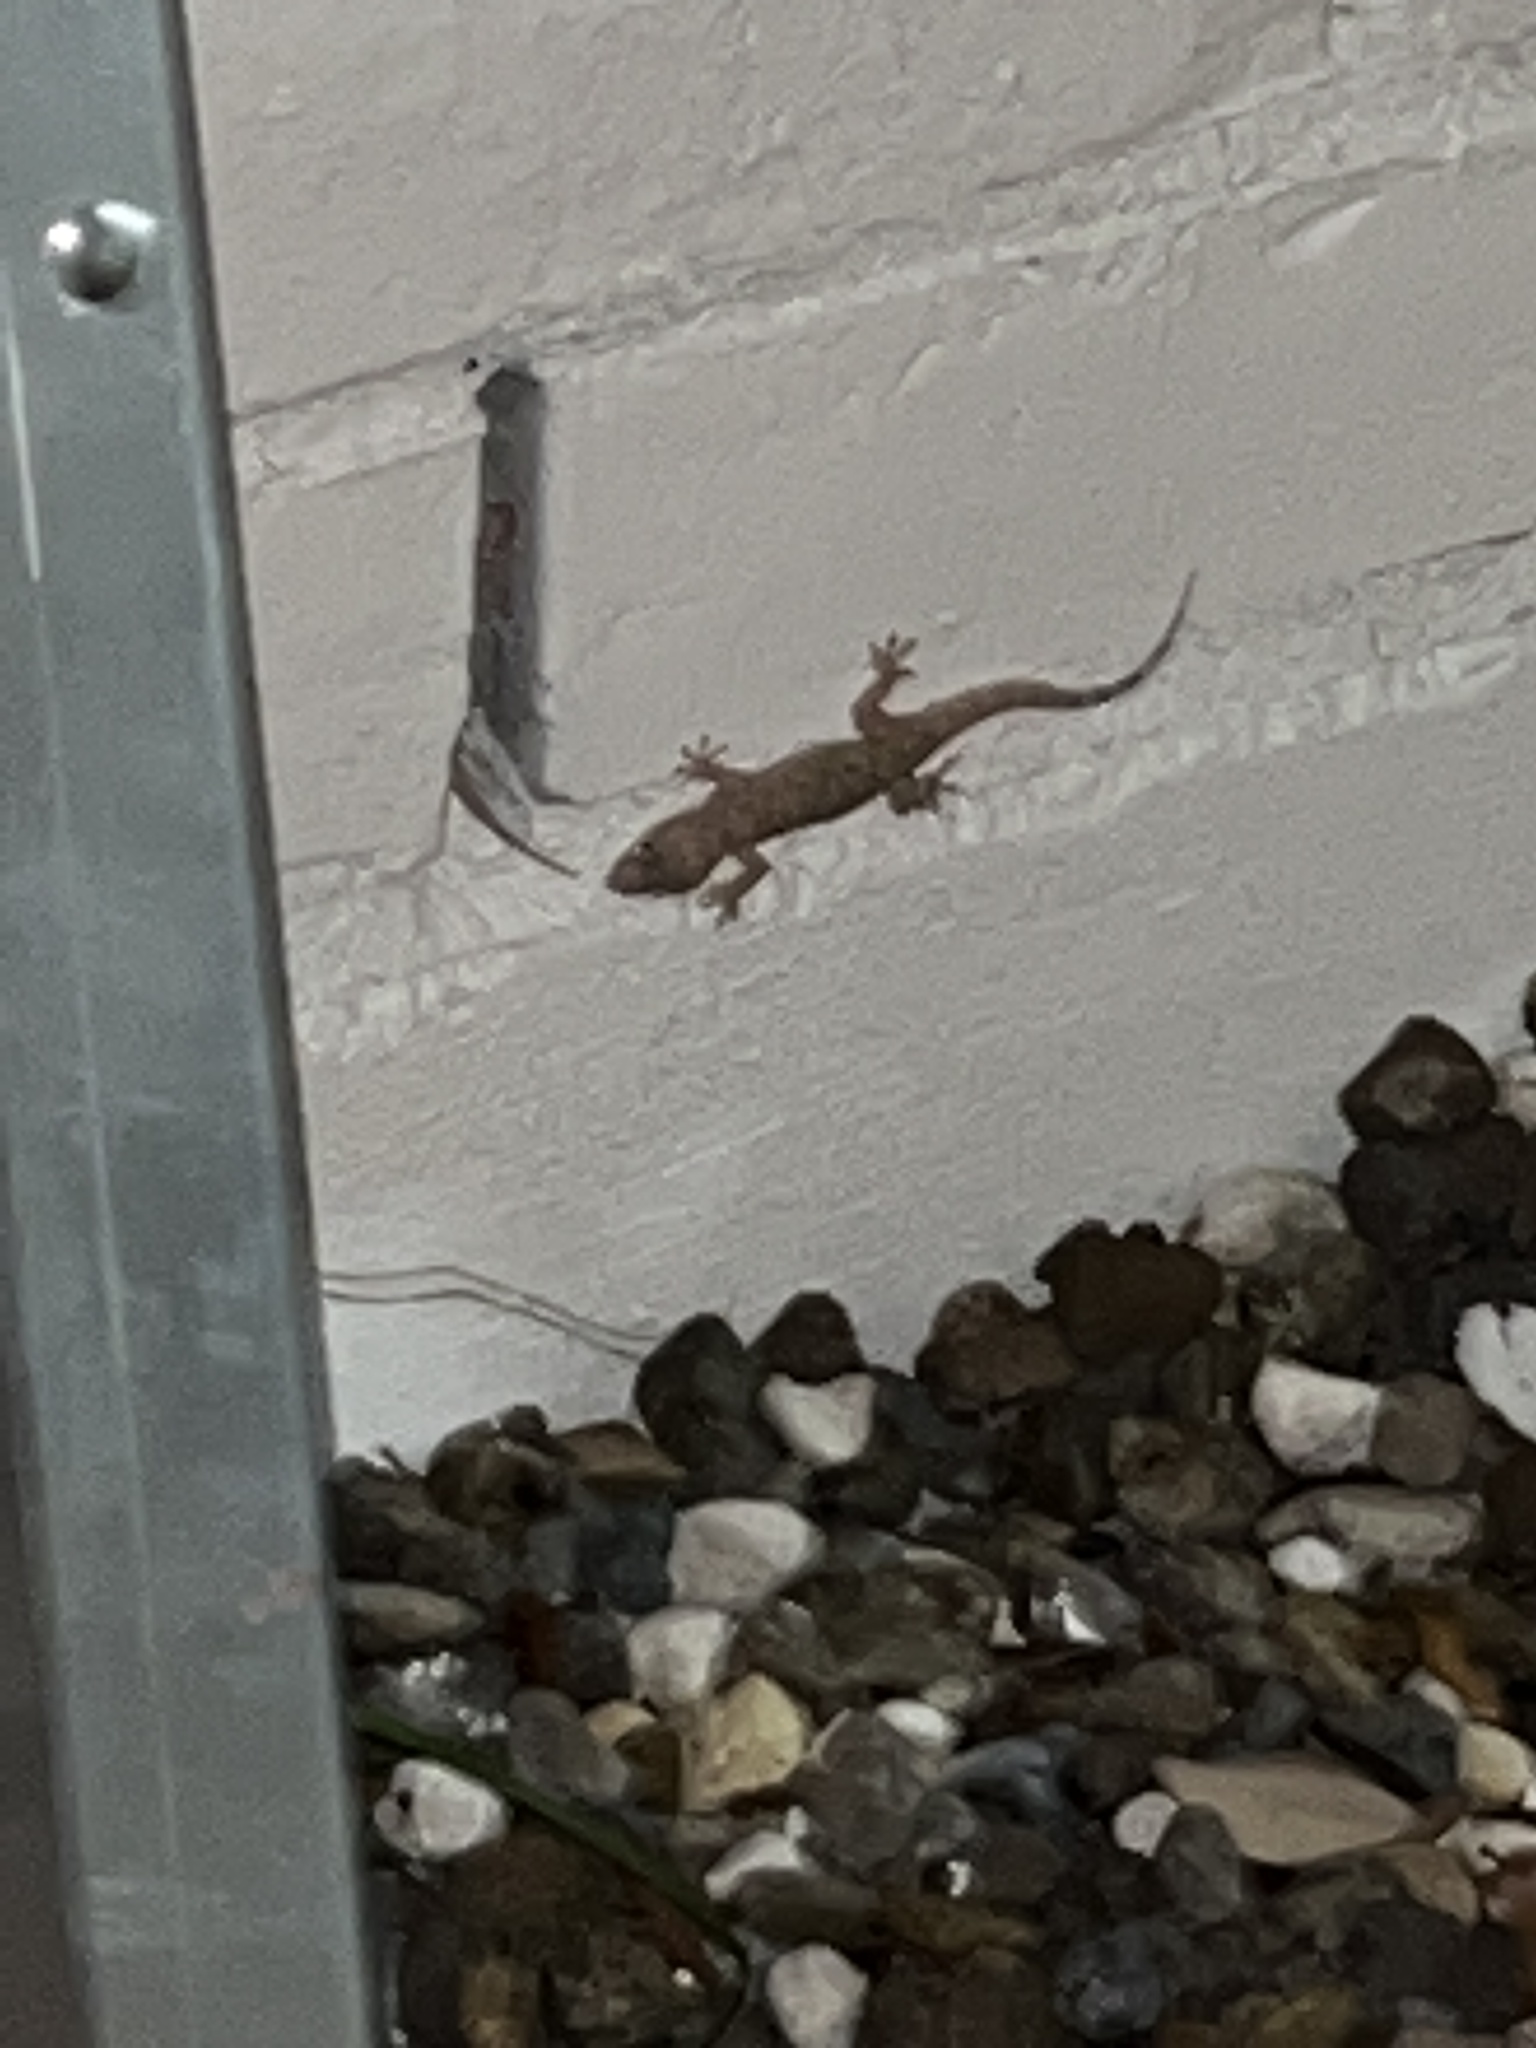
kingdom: Animalia
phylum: Chordata
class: Squamata
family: Gekkonidae
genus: Hemidactylus
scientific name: Hemidactylus turcicus
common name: Turkish gecko
